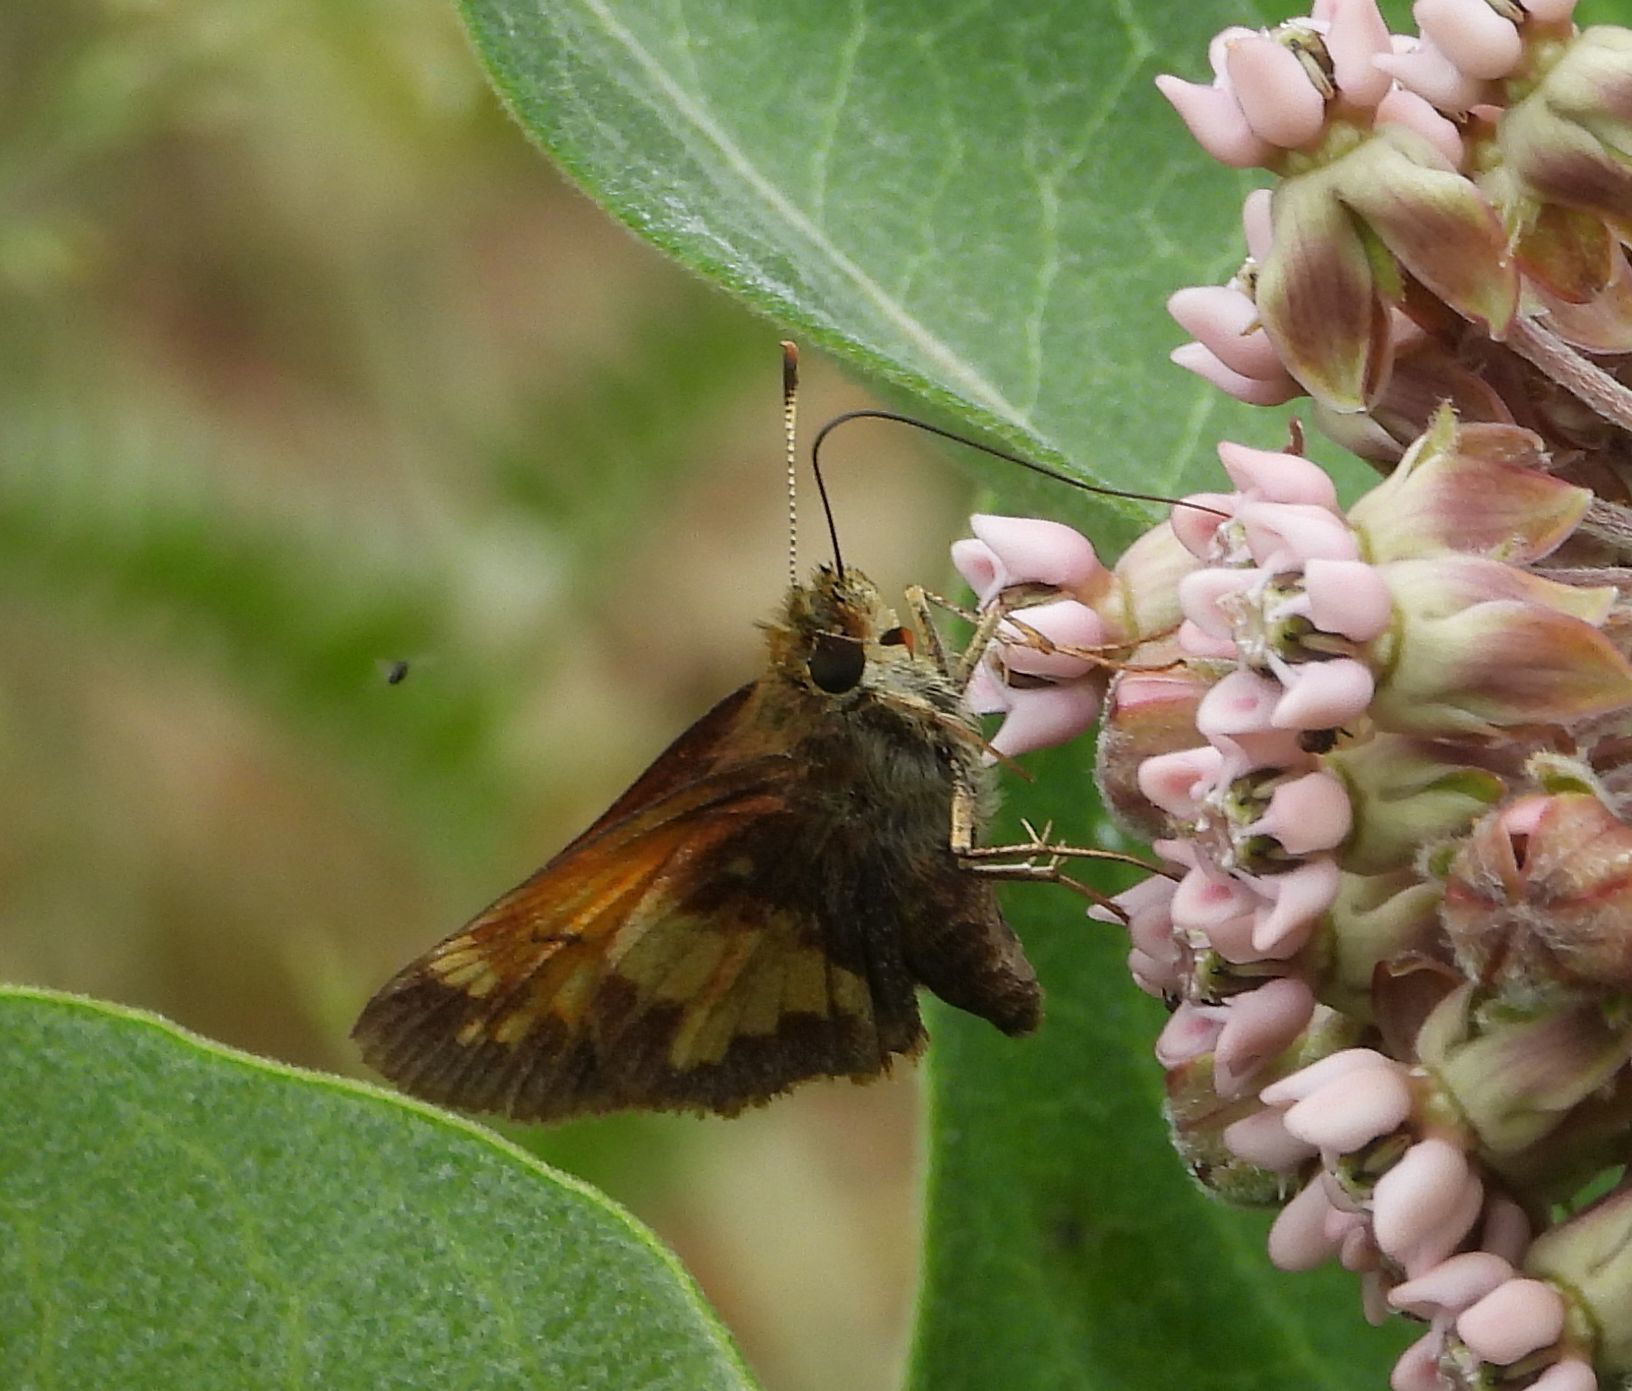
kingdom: Animalia
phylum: Arthropoda
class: Insecta
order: Lepidoptera
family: Hesperiidae
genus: Lon
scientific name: Lon hobomok
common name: Hobomok skipper
